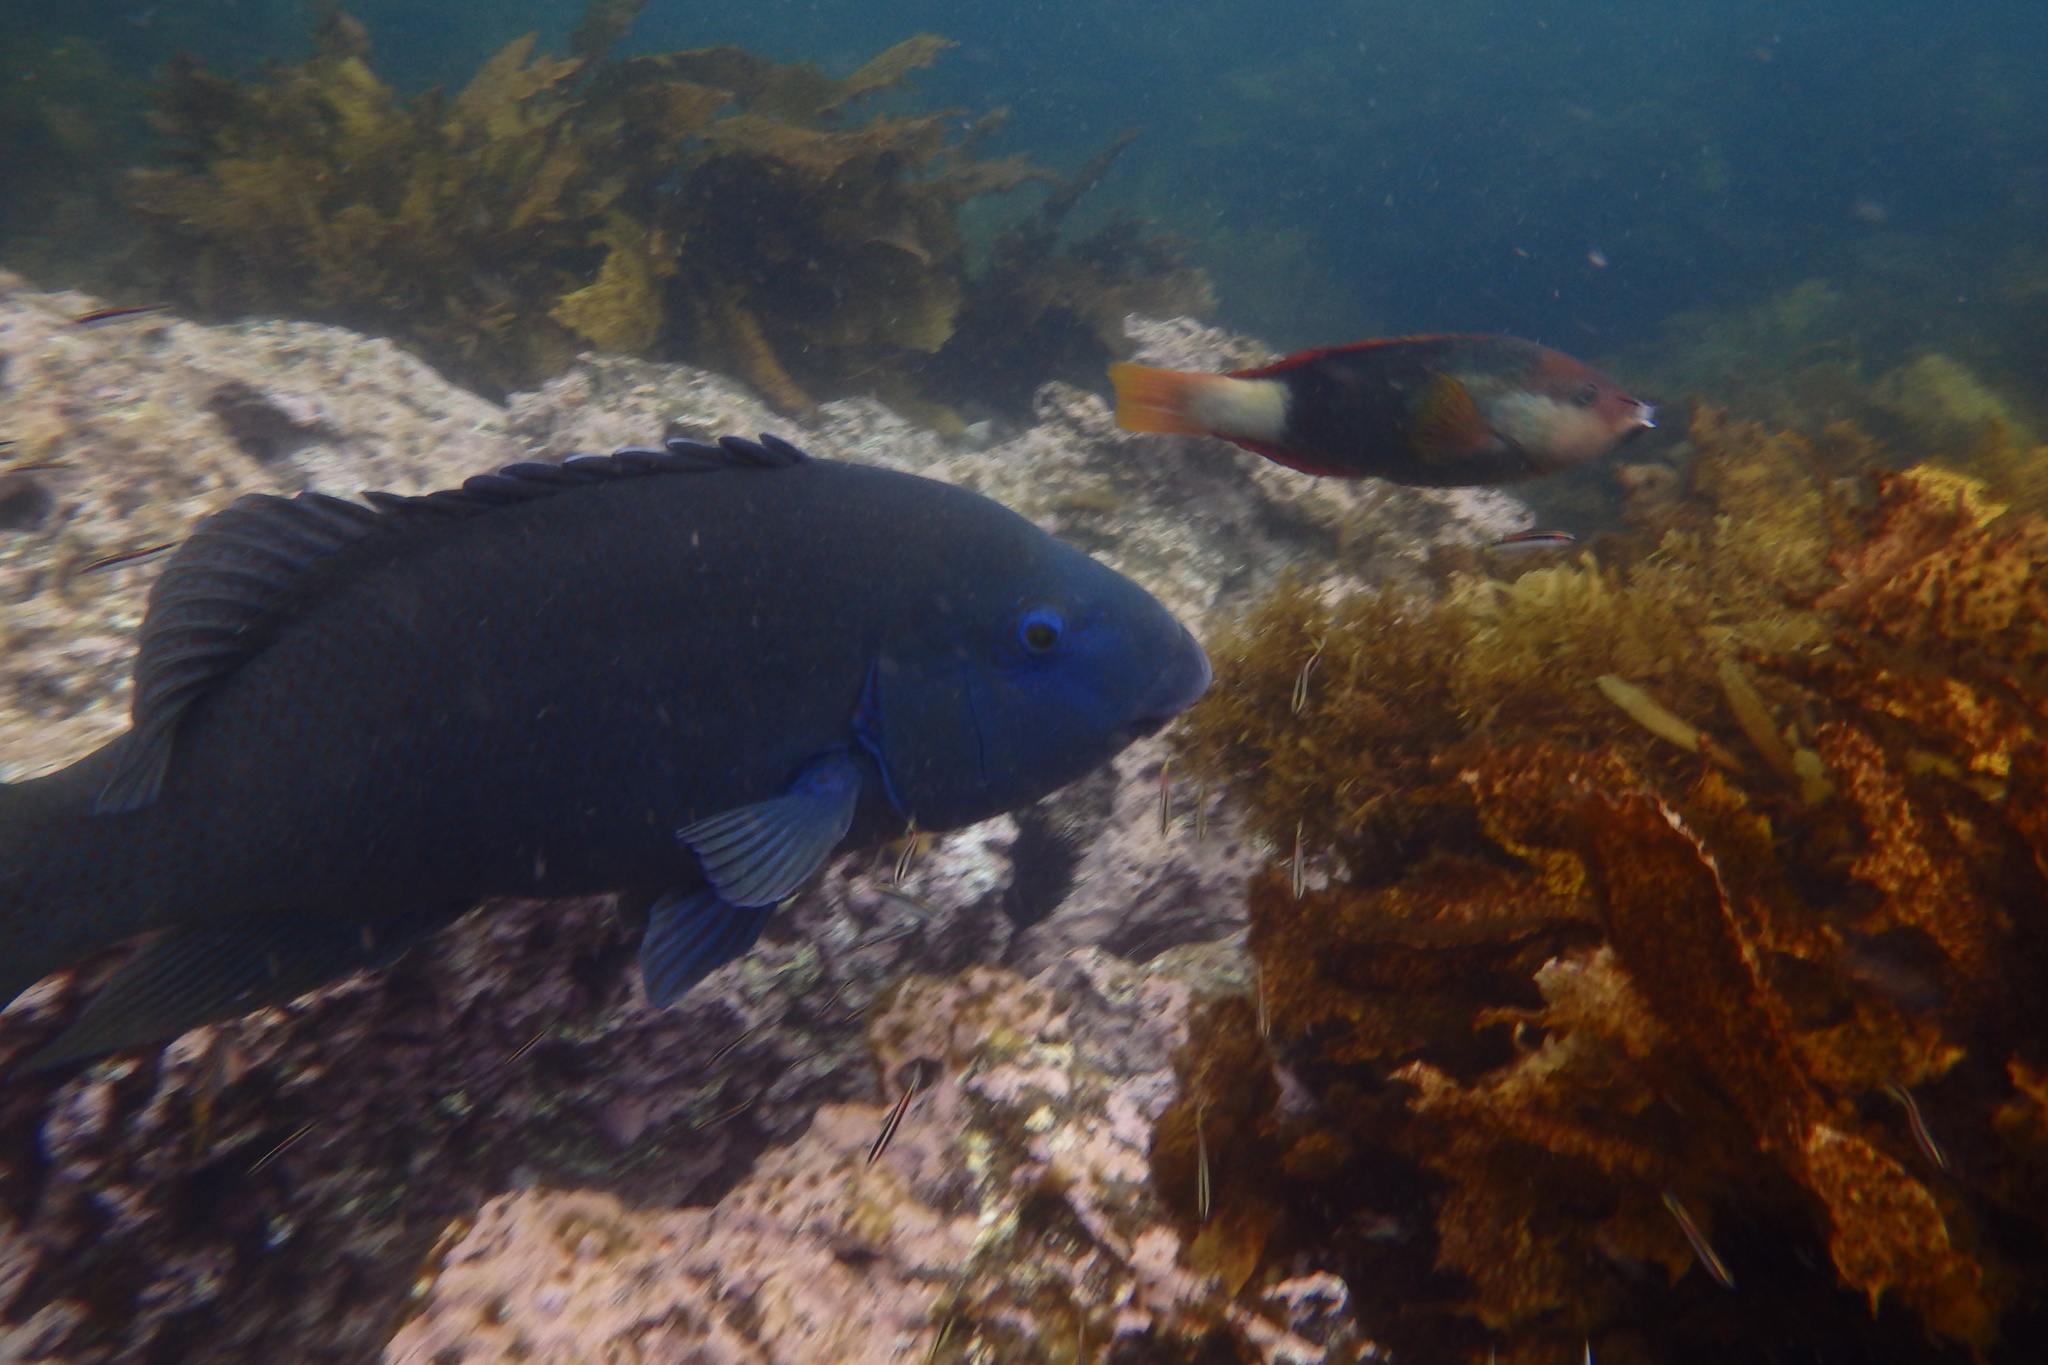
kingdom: Animalia
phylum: Chordata
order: Perciformes
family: Labridae
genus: Achoerodus
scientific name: Achoerodus viridis
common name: Brown groper
